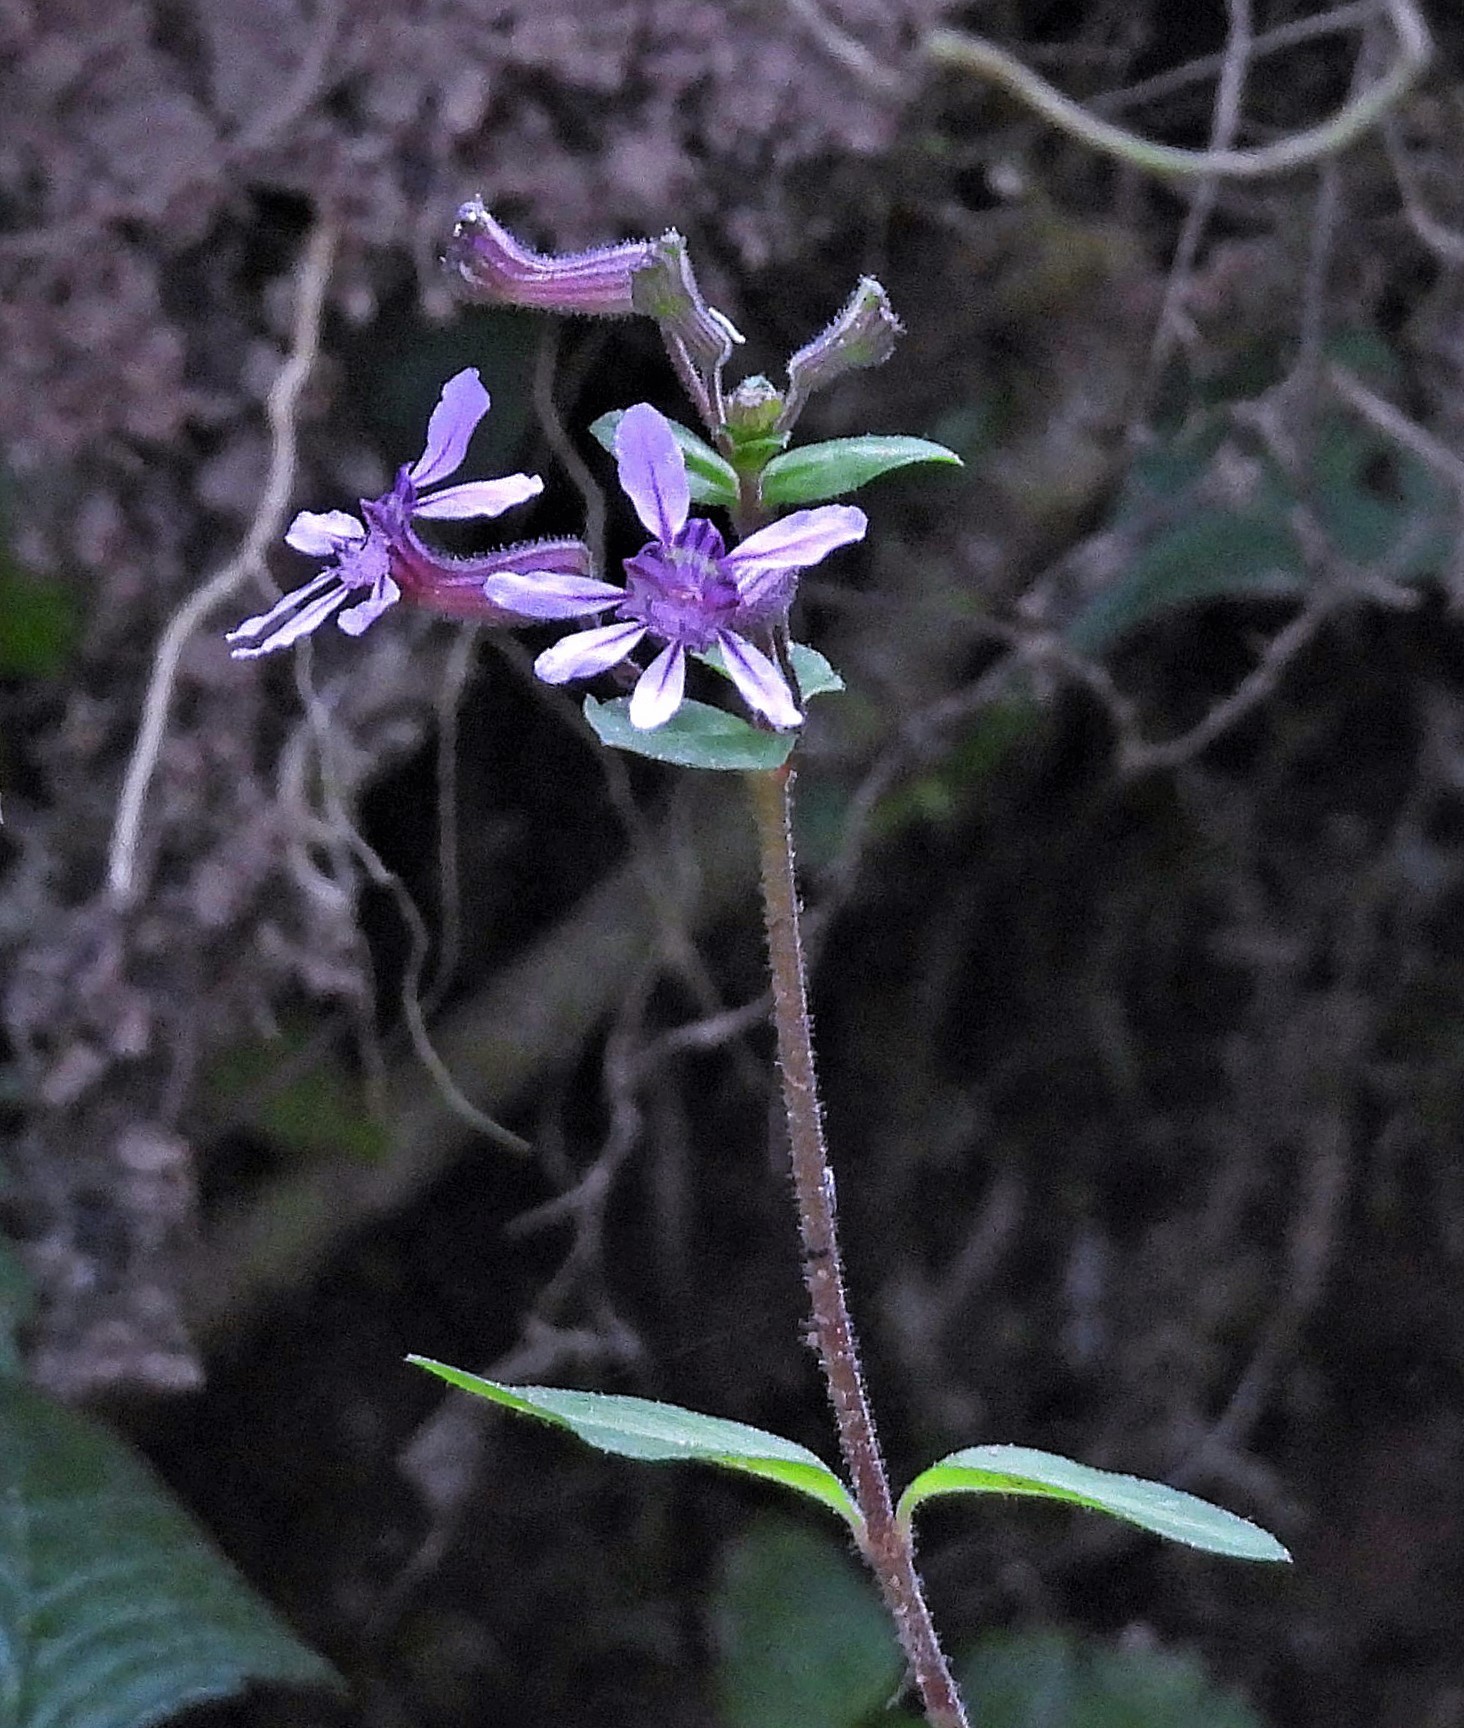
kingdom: Plantae
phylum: Tracheophyta
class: Magnoliopsida
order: Myrtales
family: Lythraceae
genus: Cuphea
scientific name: Cuphea racemosa
